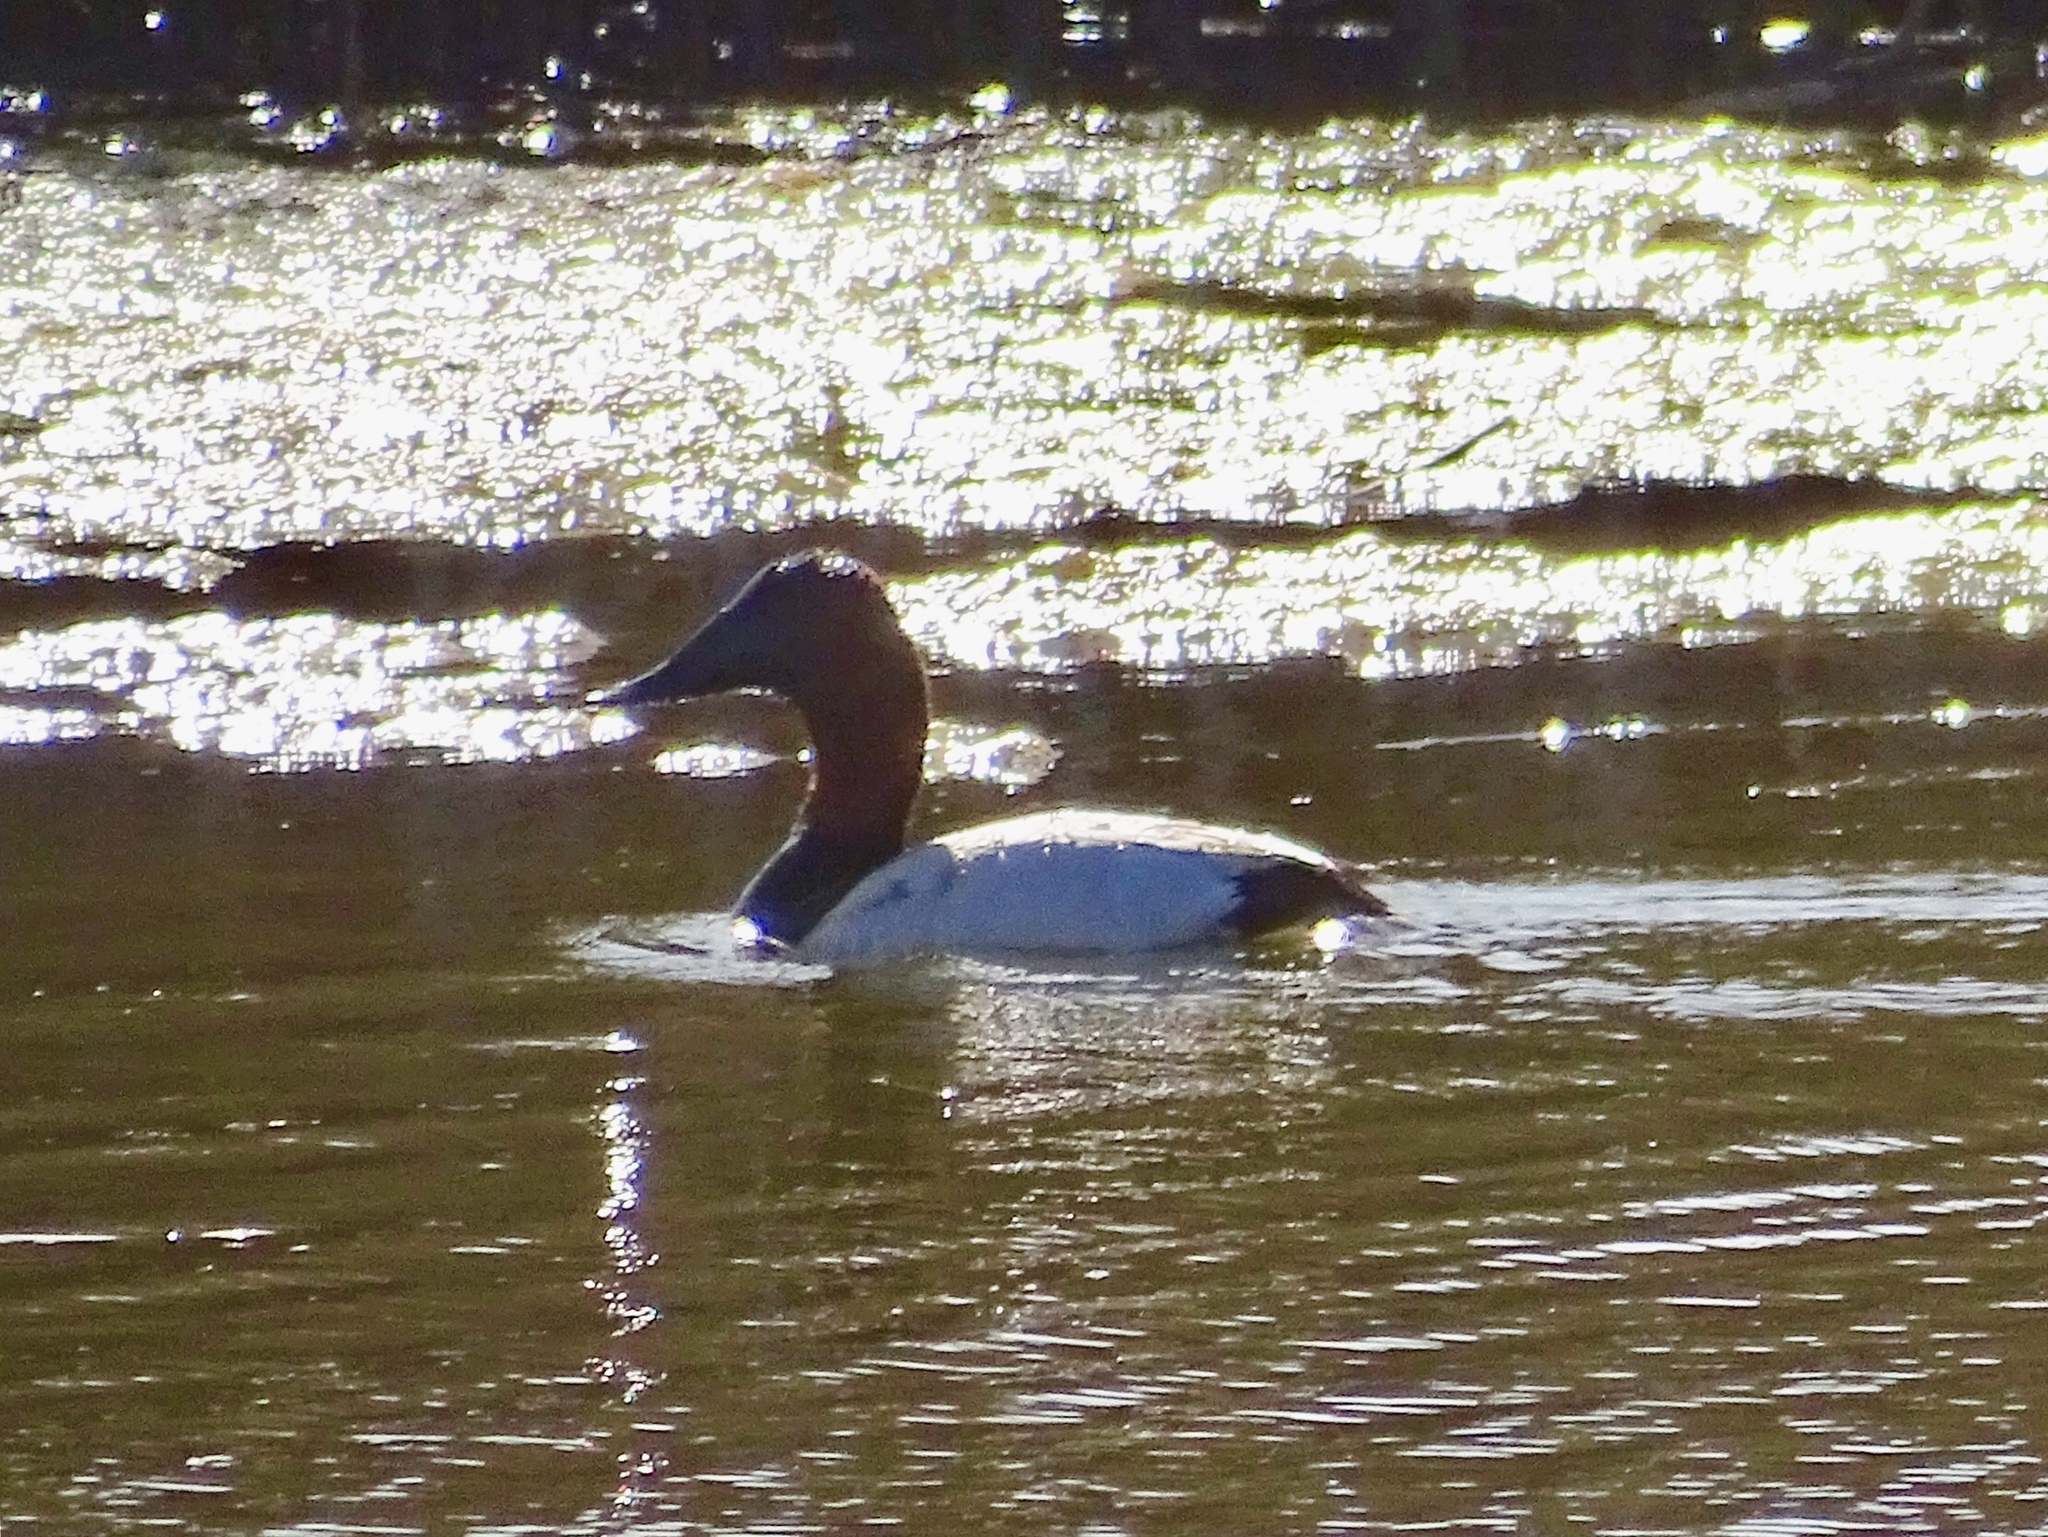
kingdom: Animalia
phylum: Chordata
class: Aves
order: Anseriformes
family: Anatidae
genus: Aythya
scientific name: Aythya valisineria
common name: Canvasback
